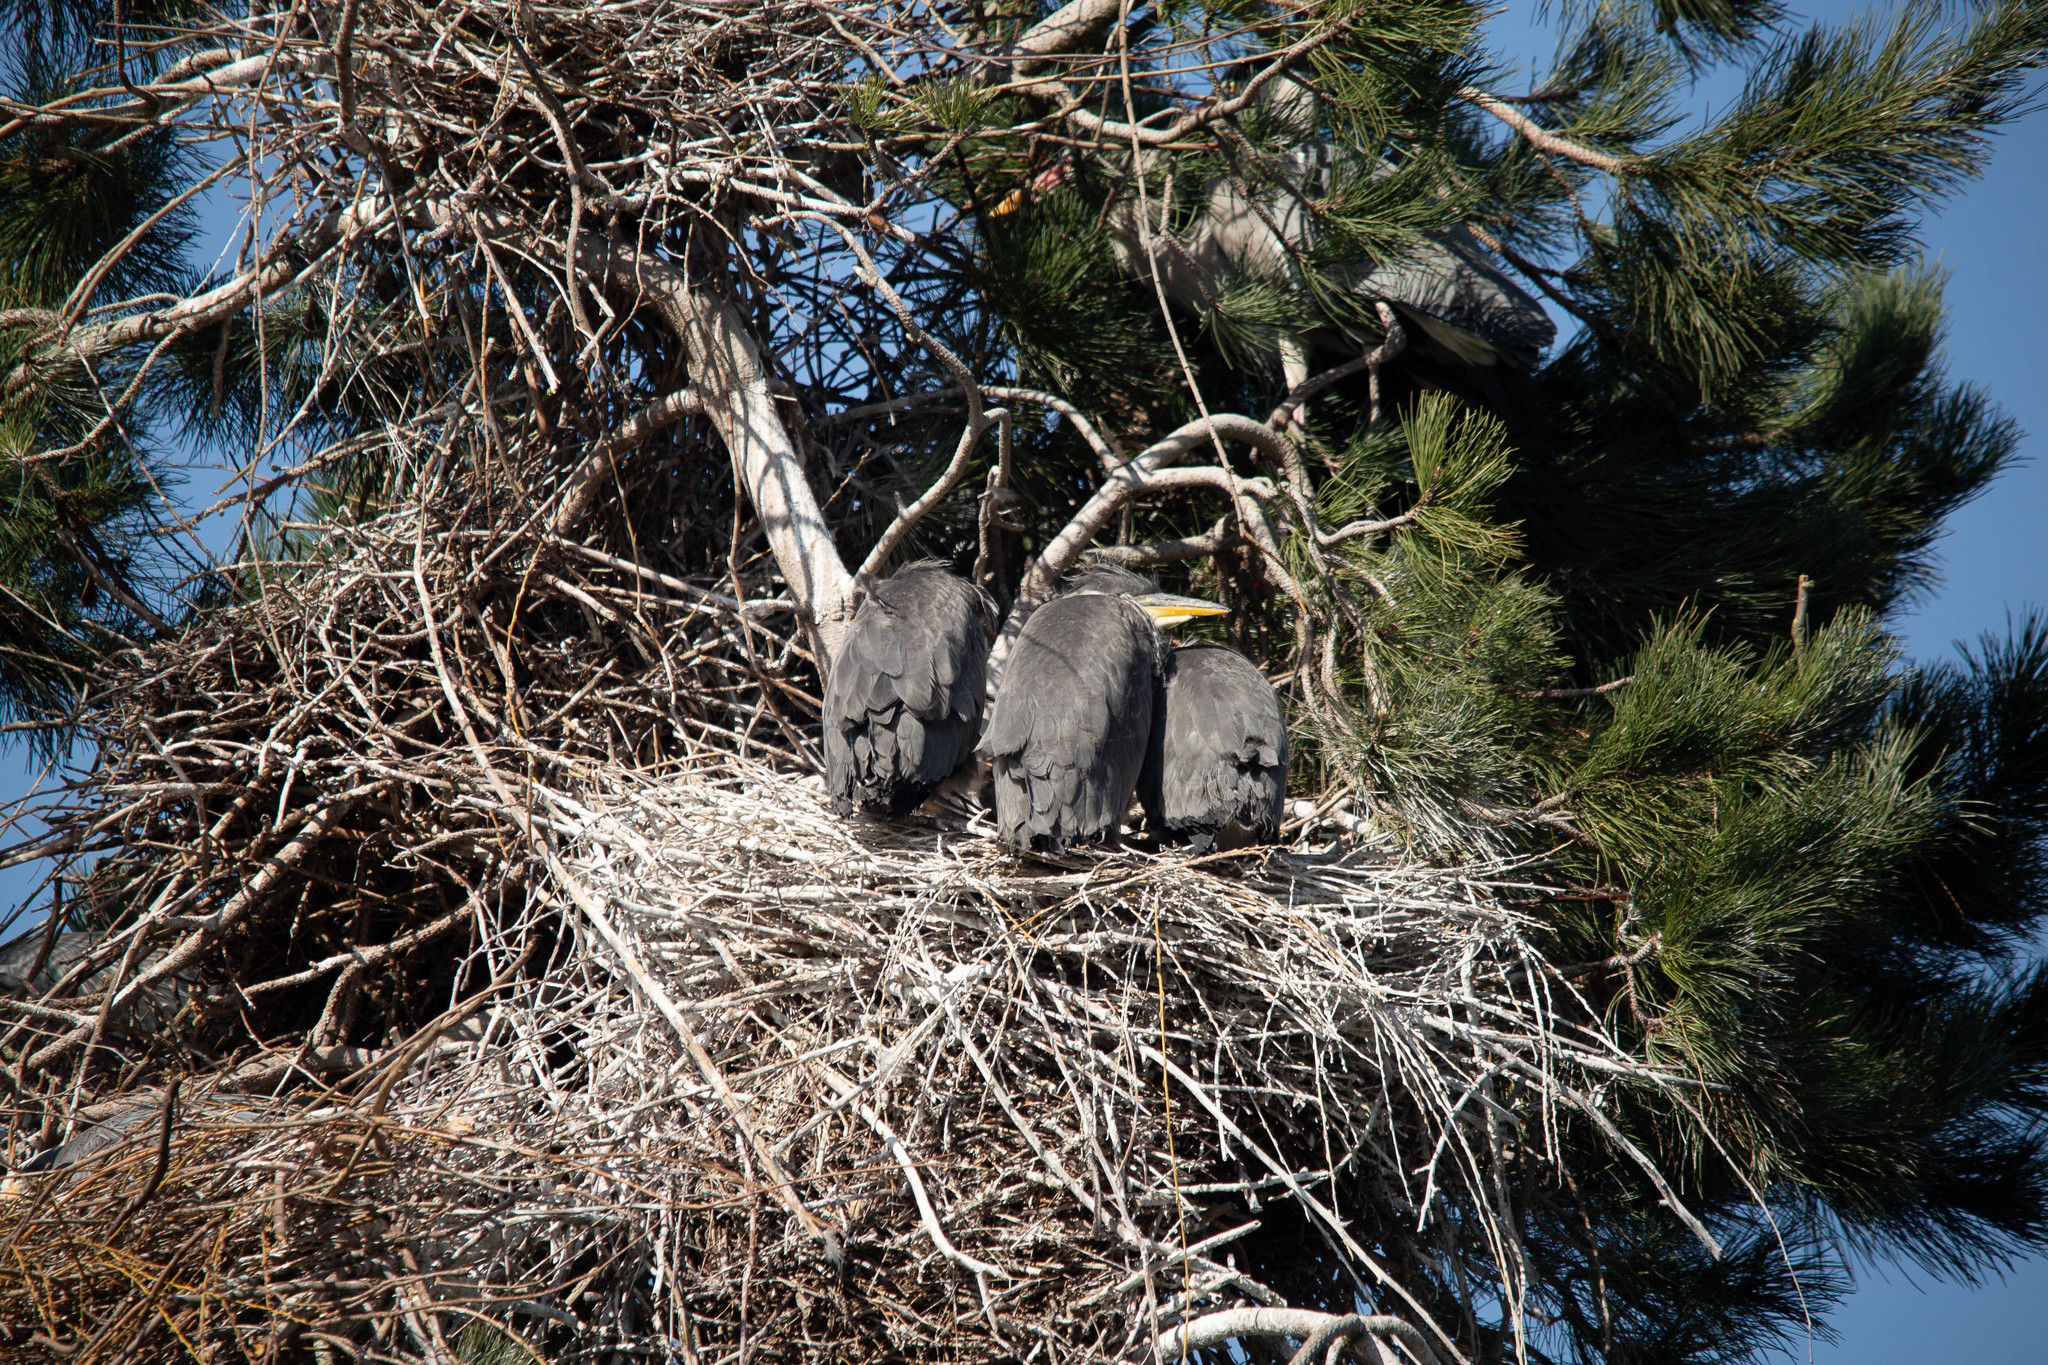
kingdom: Animalia
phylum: Chordata
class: Aves
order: Pelecaniformes
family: Ardeidae
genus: Ardea
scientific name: Ardea cinerea
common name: Grey heron
